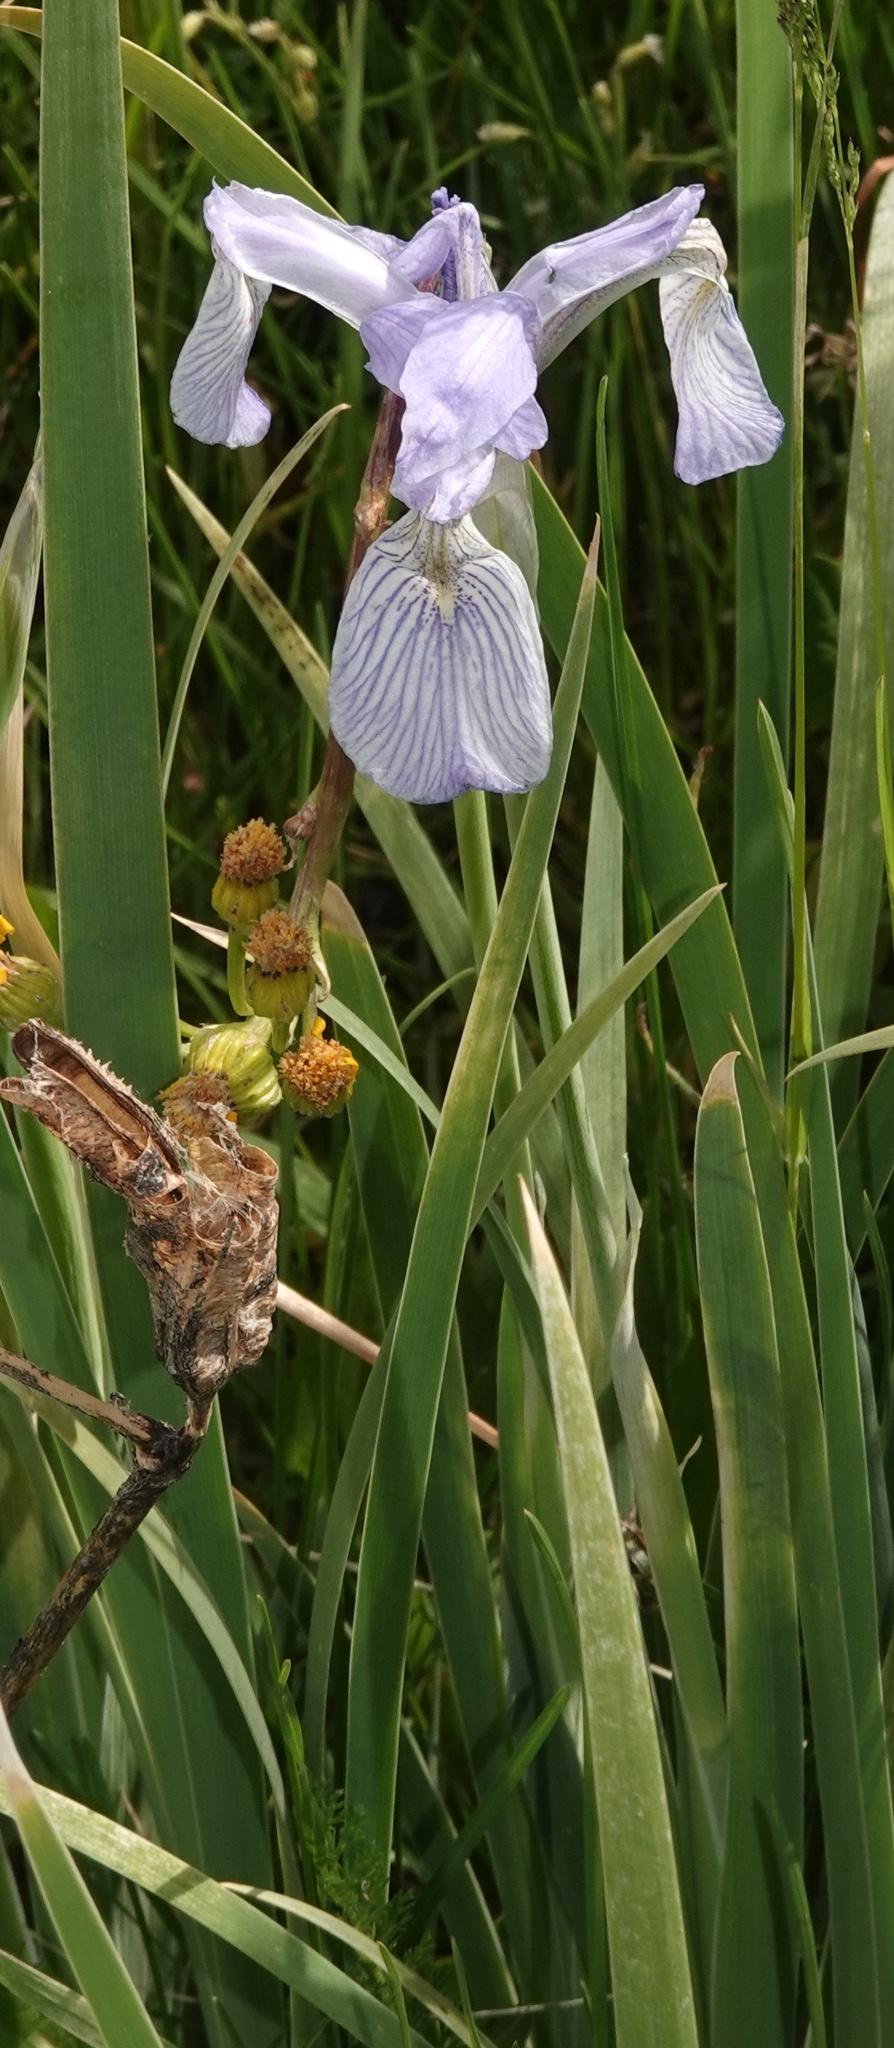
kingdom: Plantae
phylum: Tracheophyta
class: Liliopsida
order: Asparagales
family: Iridaceae
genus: Iris
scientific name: Iris missouriensis
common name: Rocky mountain iris
